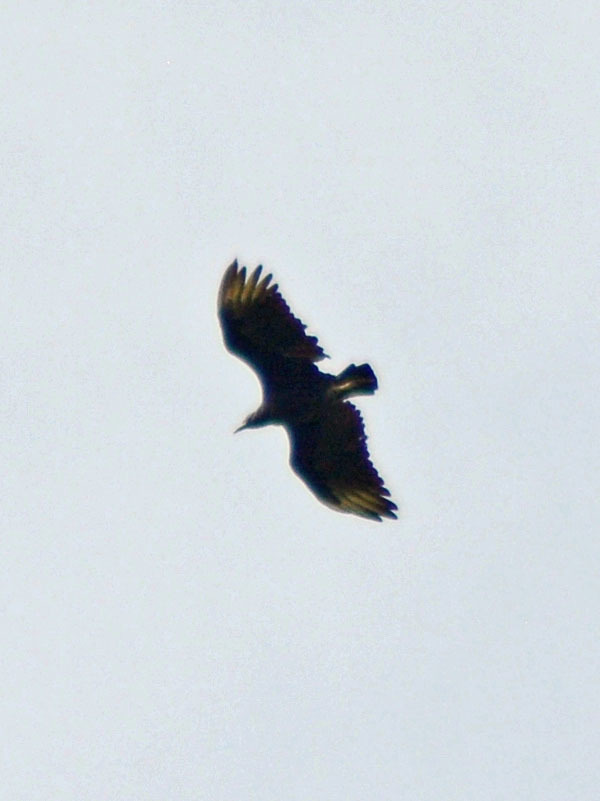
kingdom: Animalia
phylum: Chordata
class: Aves
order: Accipitriformes
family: Cathartidae
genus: Coragyps
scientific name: Coragyps atratus
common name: Black vulture
